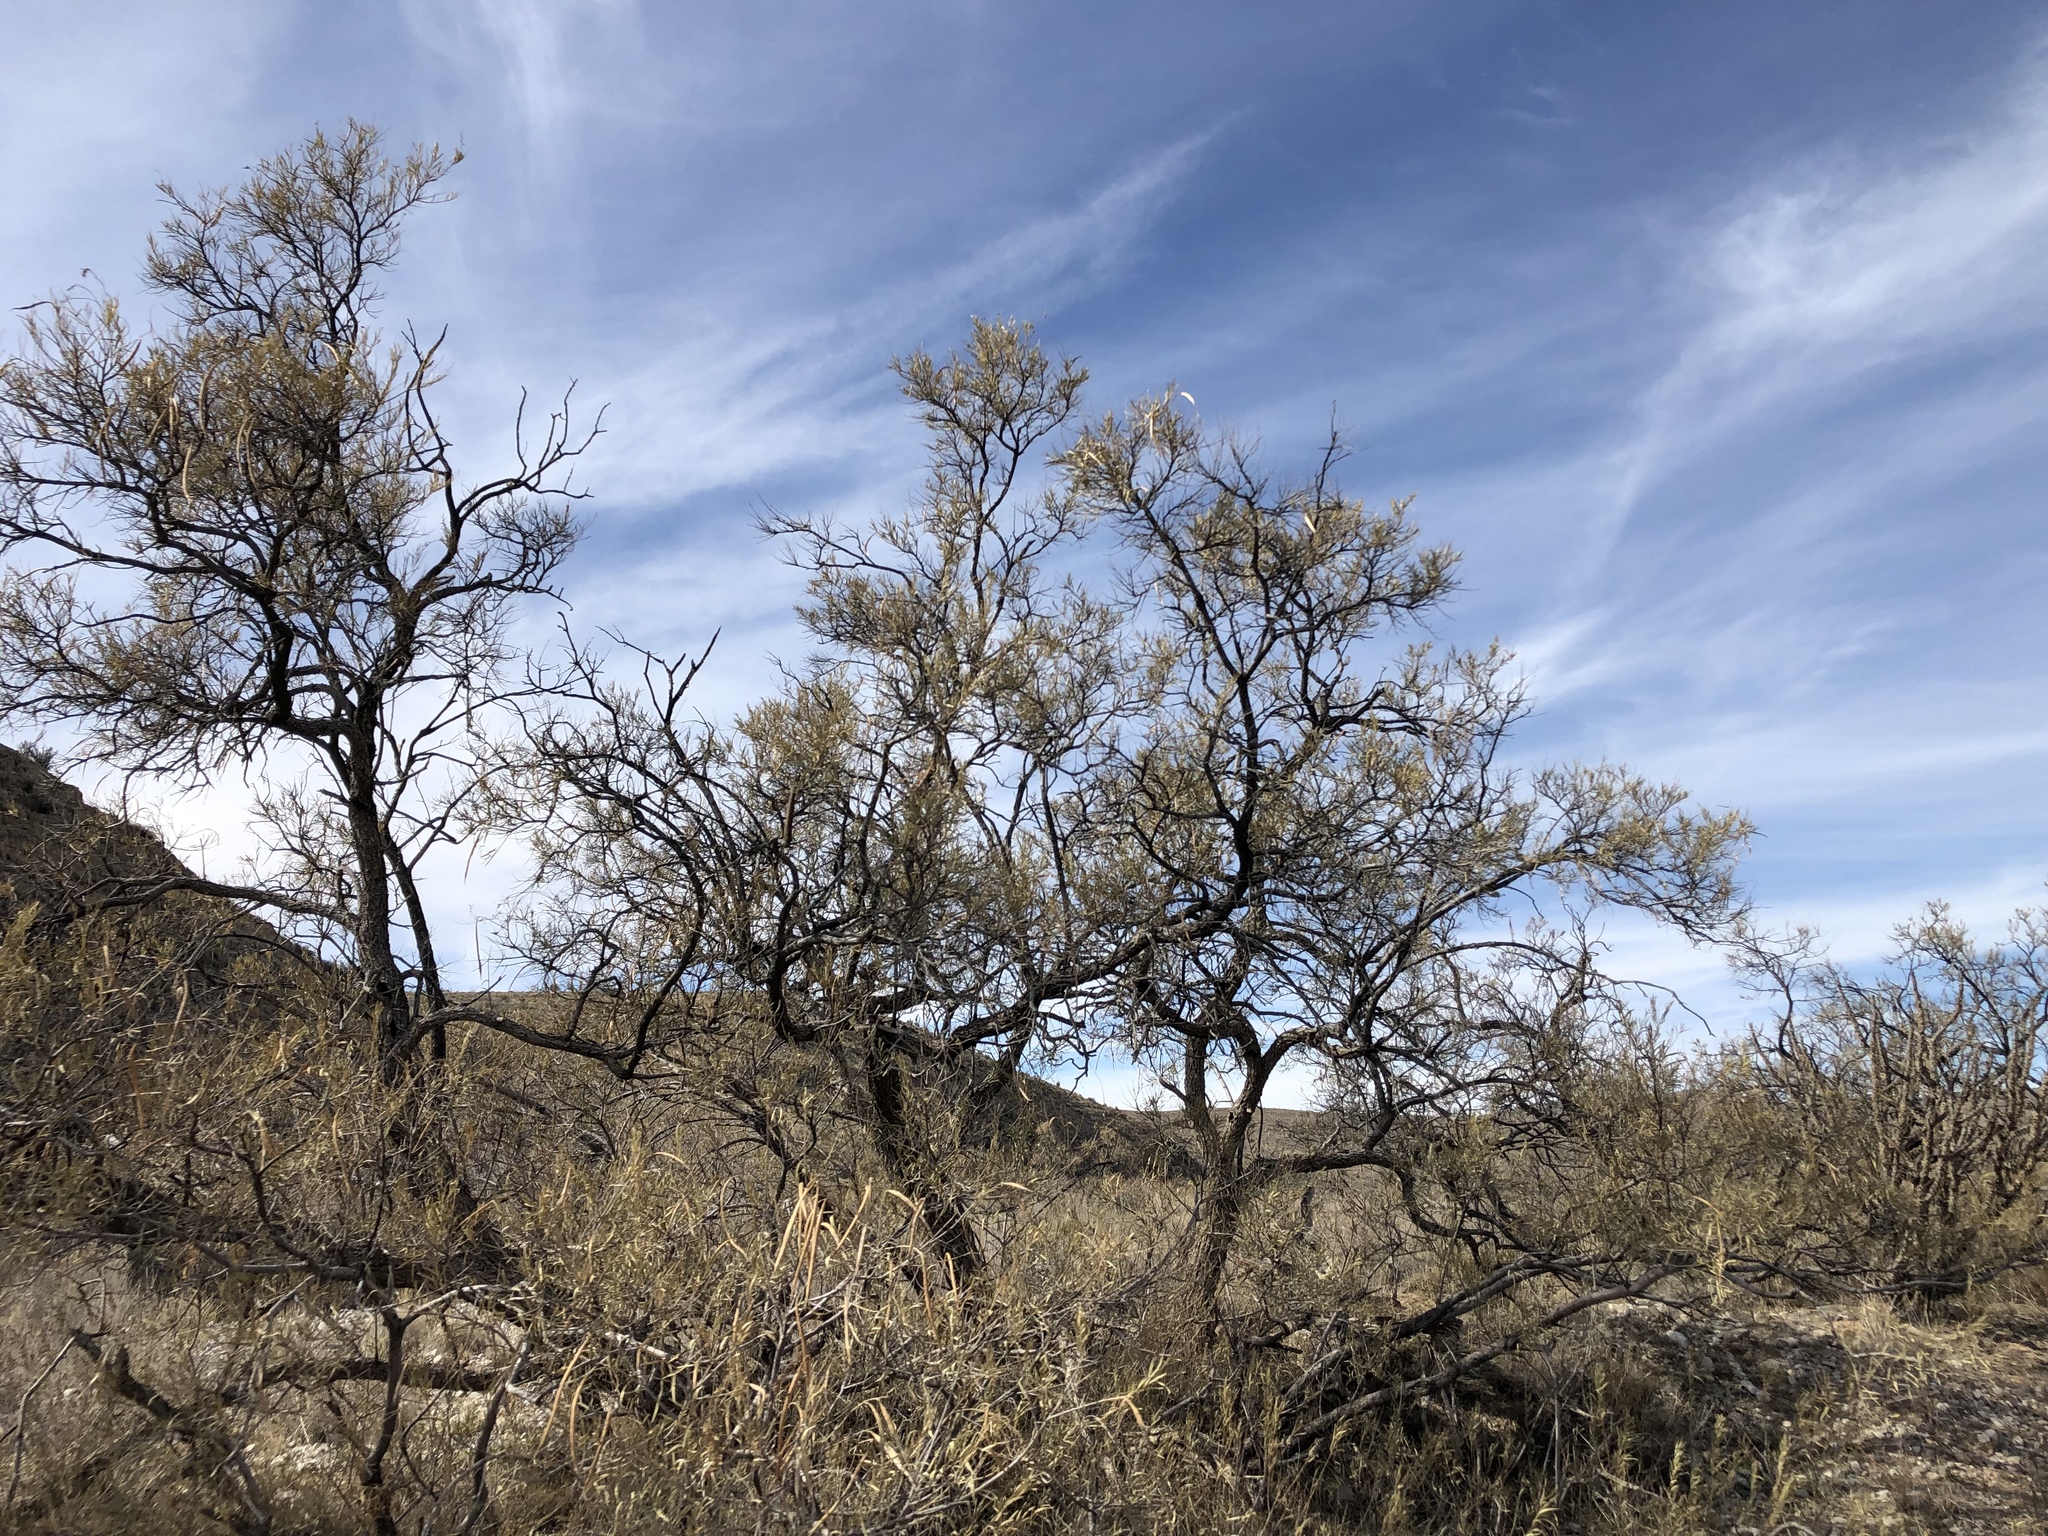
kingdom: Plantae
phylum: Tracheophyta
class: Magnoliopsida
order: Lamiales
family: Bignoniaceae
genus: Chilopsis
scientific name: Chilopsis linearis
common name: Desert-willow
